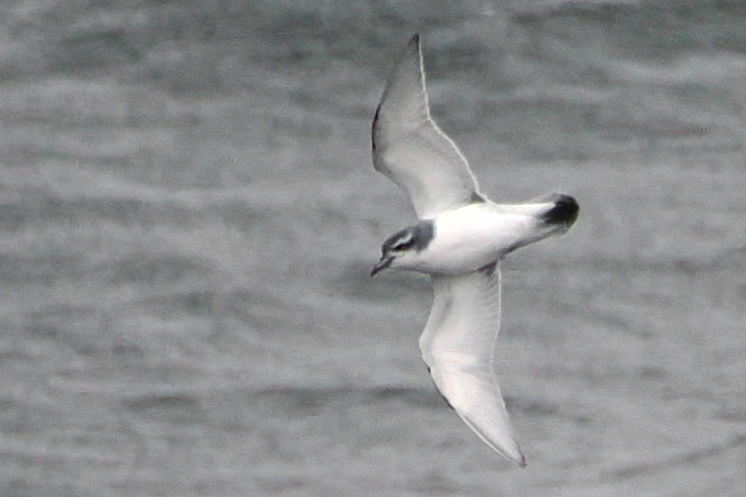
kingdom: Animalia
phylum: Chordata
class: Aves
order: Procellariiformes
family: Procellariidae
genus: Pachyptila
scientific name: Pachyptila desolata
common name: Antarctic prion
